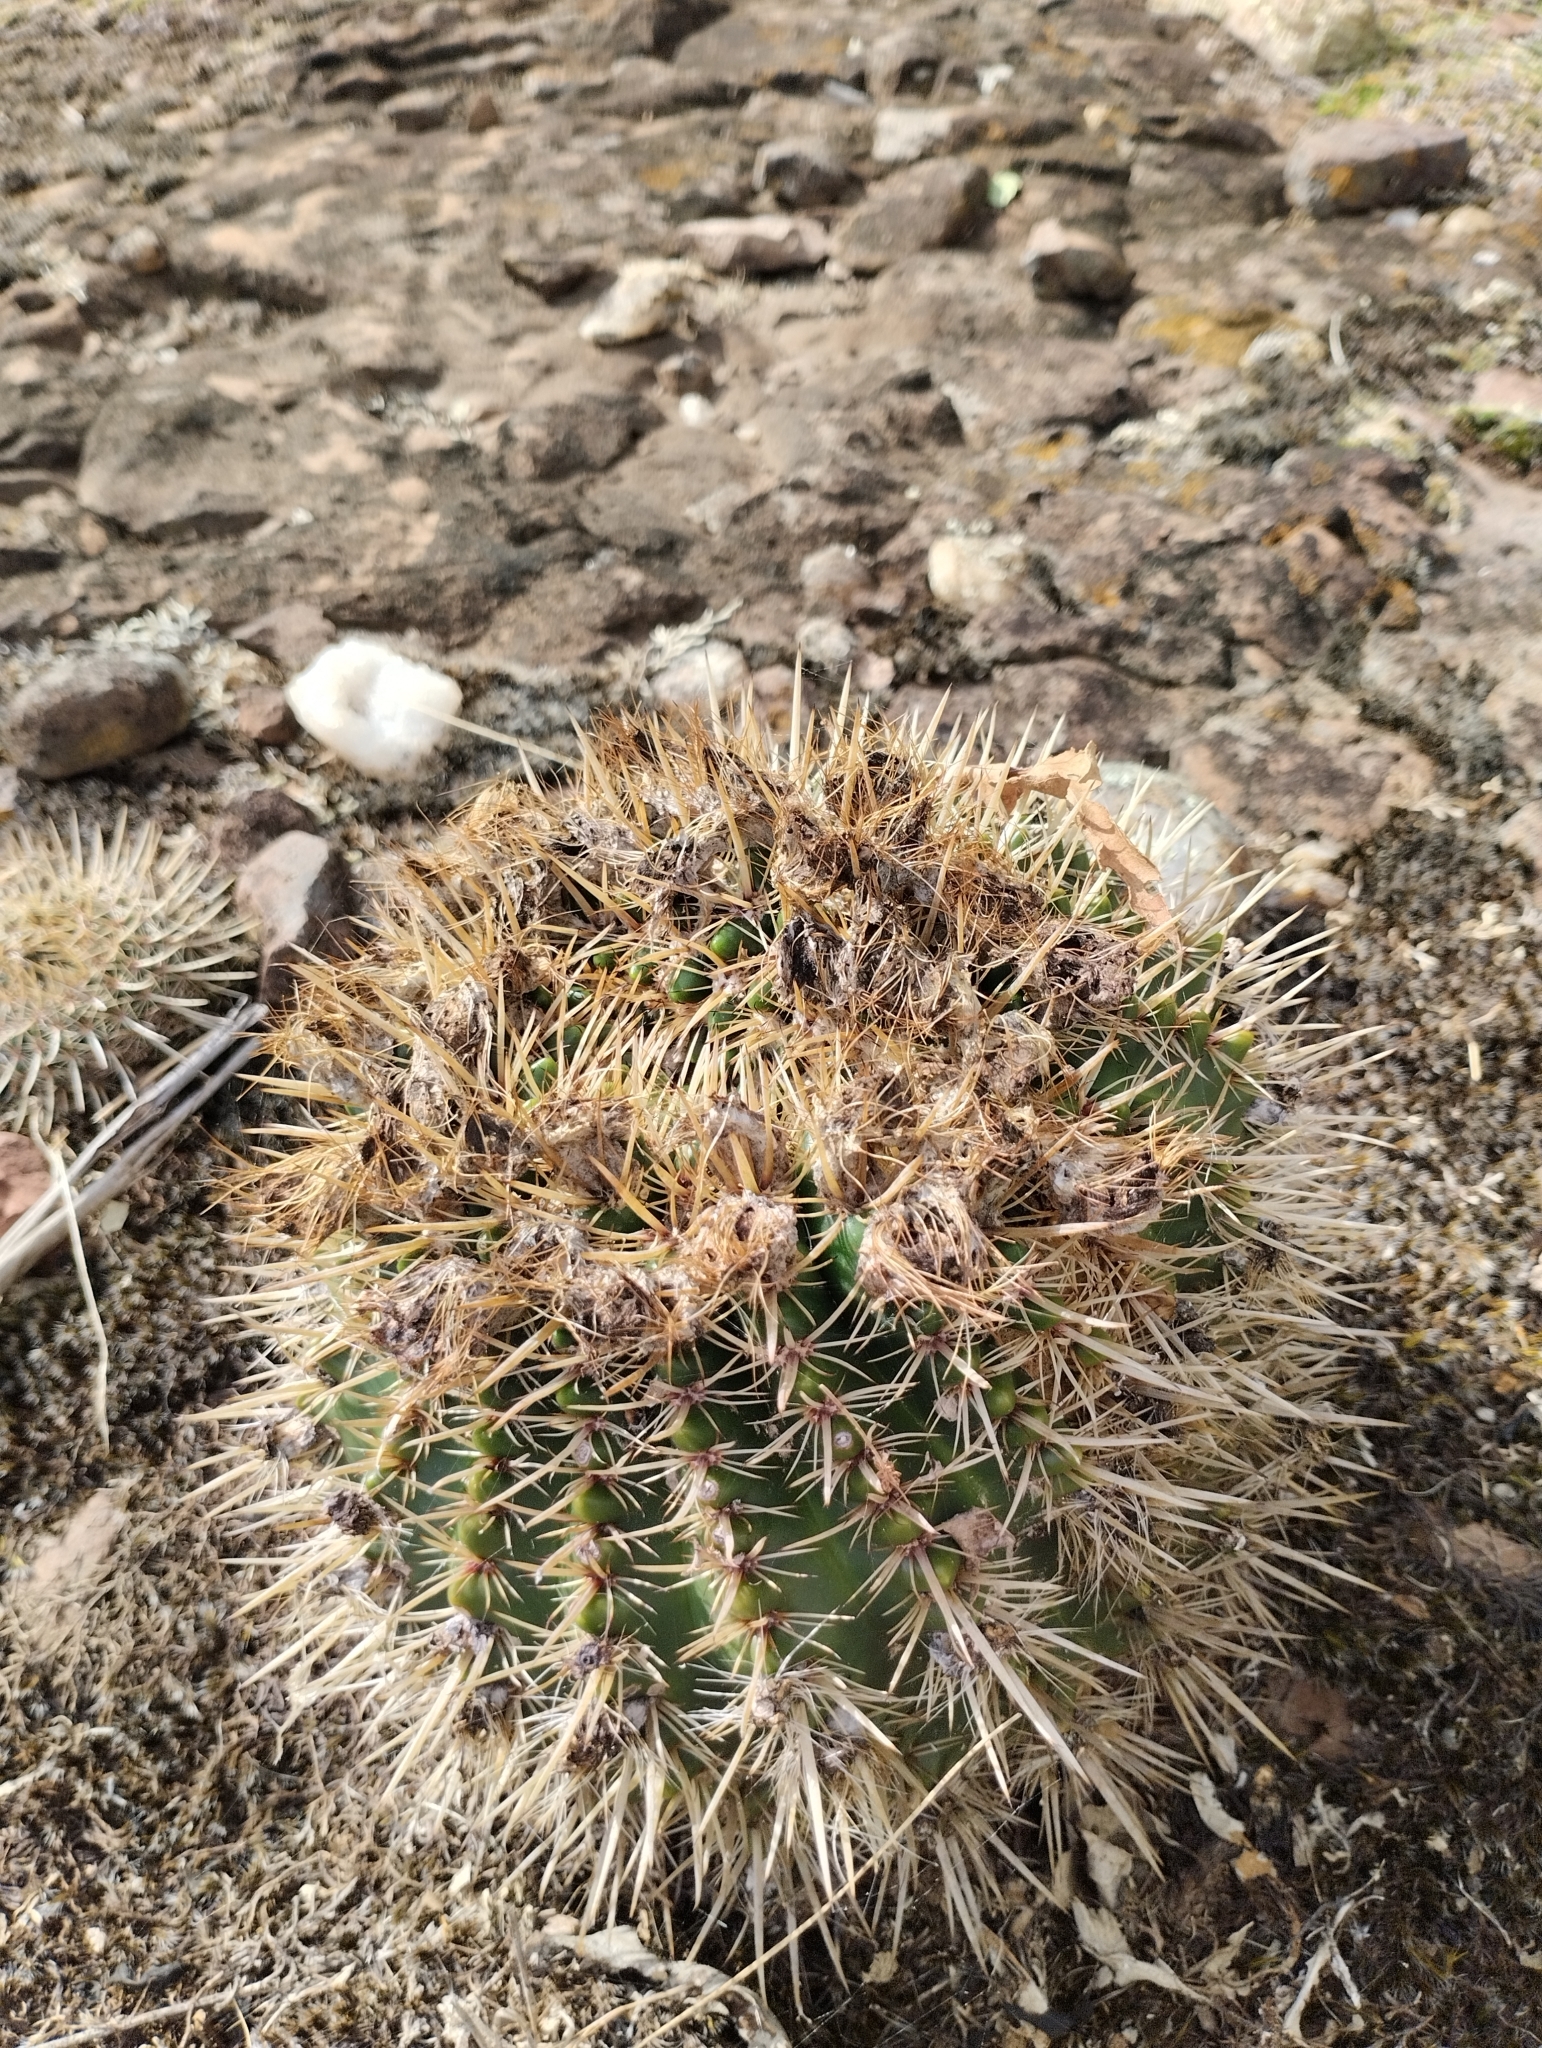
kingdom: Plantae
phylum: Tracheophyta
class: Magnoliopsida
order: Caryophyllales
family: Cactaceae
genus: Parodia
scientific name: Parodia mammulosa
